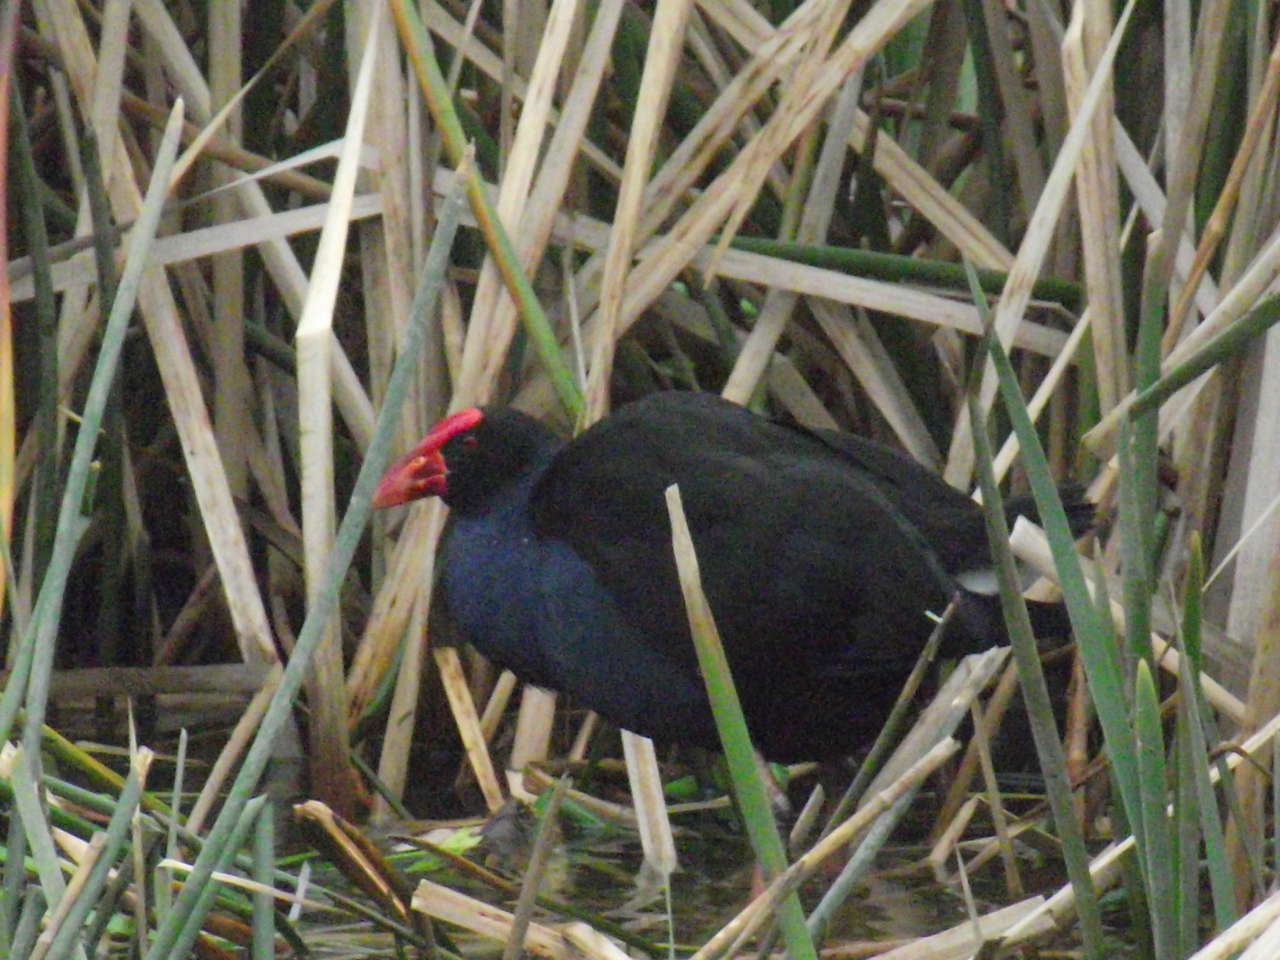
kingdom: Animalia
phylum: Chordata
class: Aves
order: Gruiformes
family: Rallidae
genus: Porphyrio
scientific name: Porphyrio melanotus
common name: Australasian swamphen
